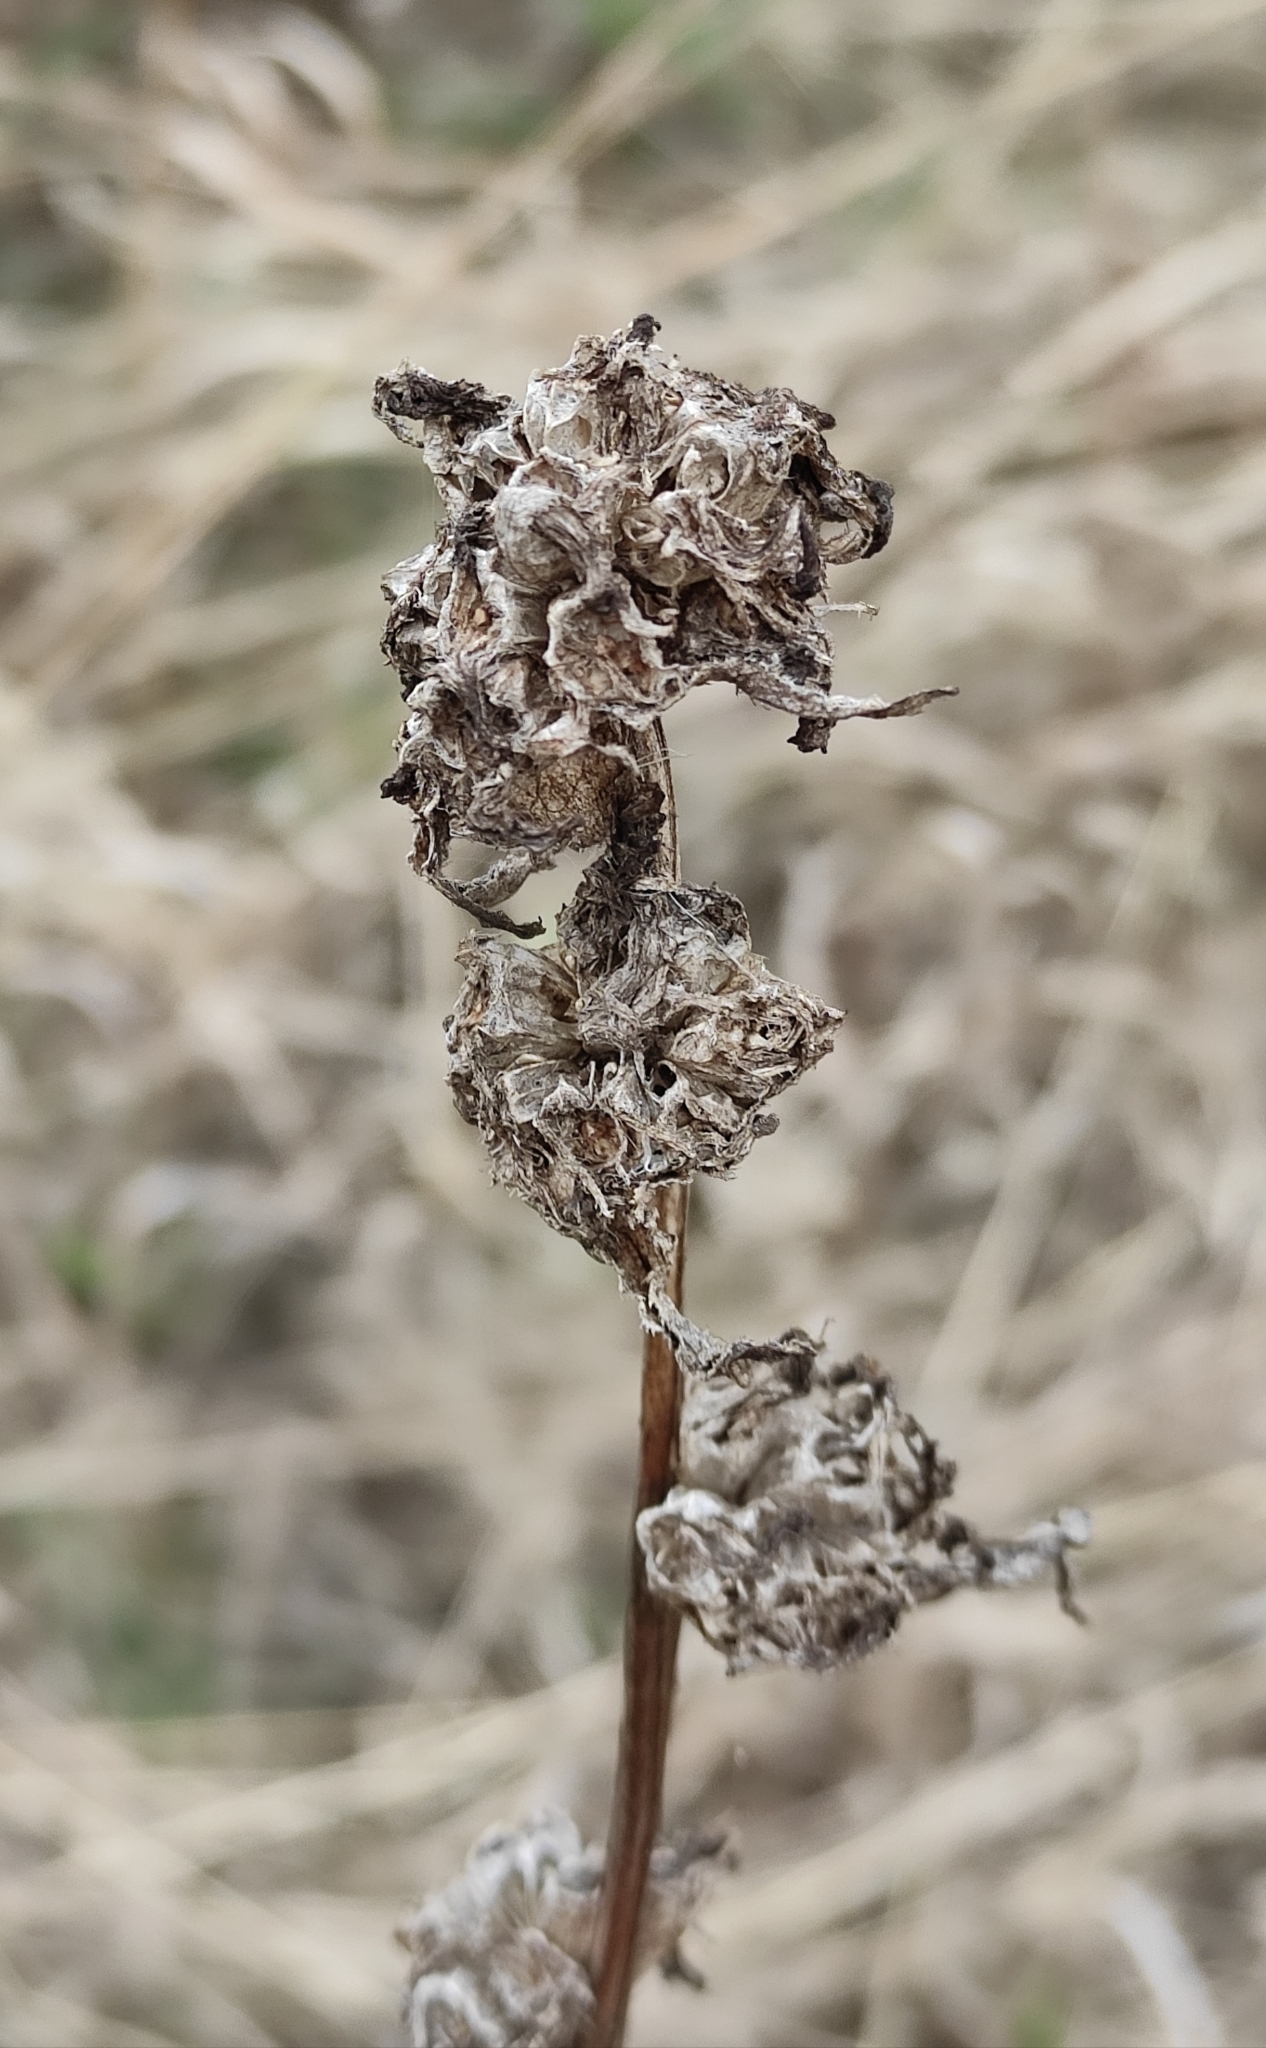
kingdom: Plantae
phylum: Tracheophyta
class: Magnoliopsida
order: Asterales
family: Campanulaceae
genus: Campanula
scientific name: Campanula glomerata
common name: Clustered bellflower
